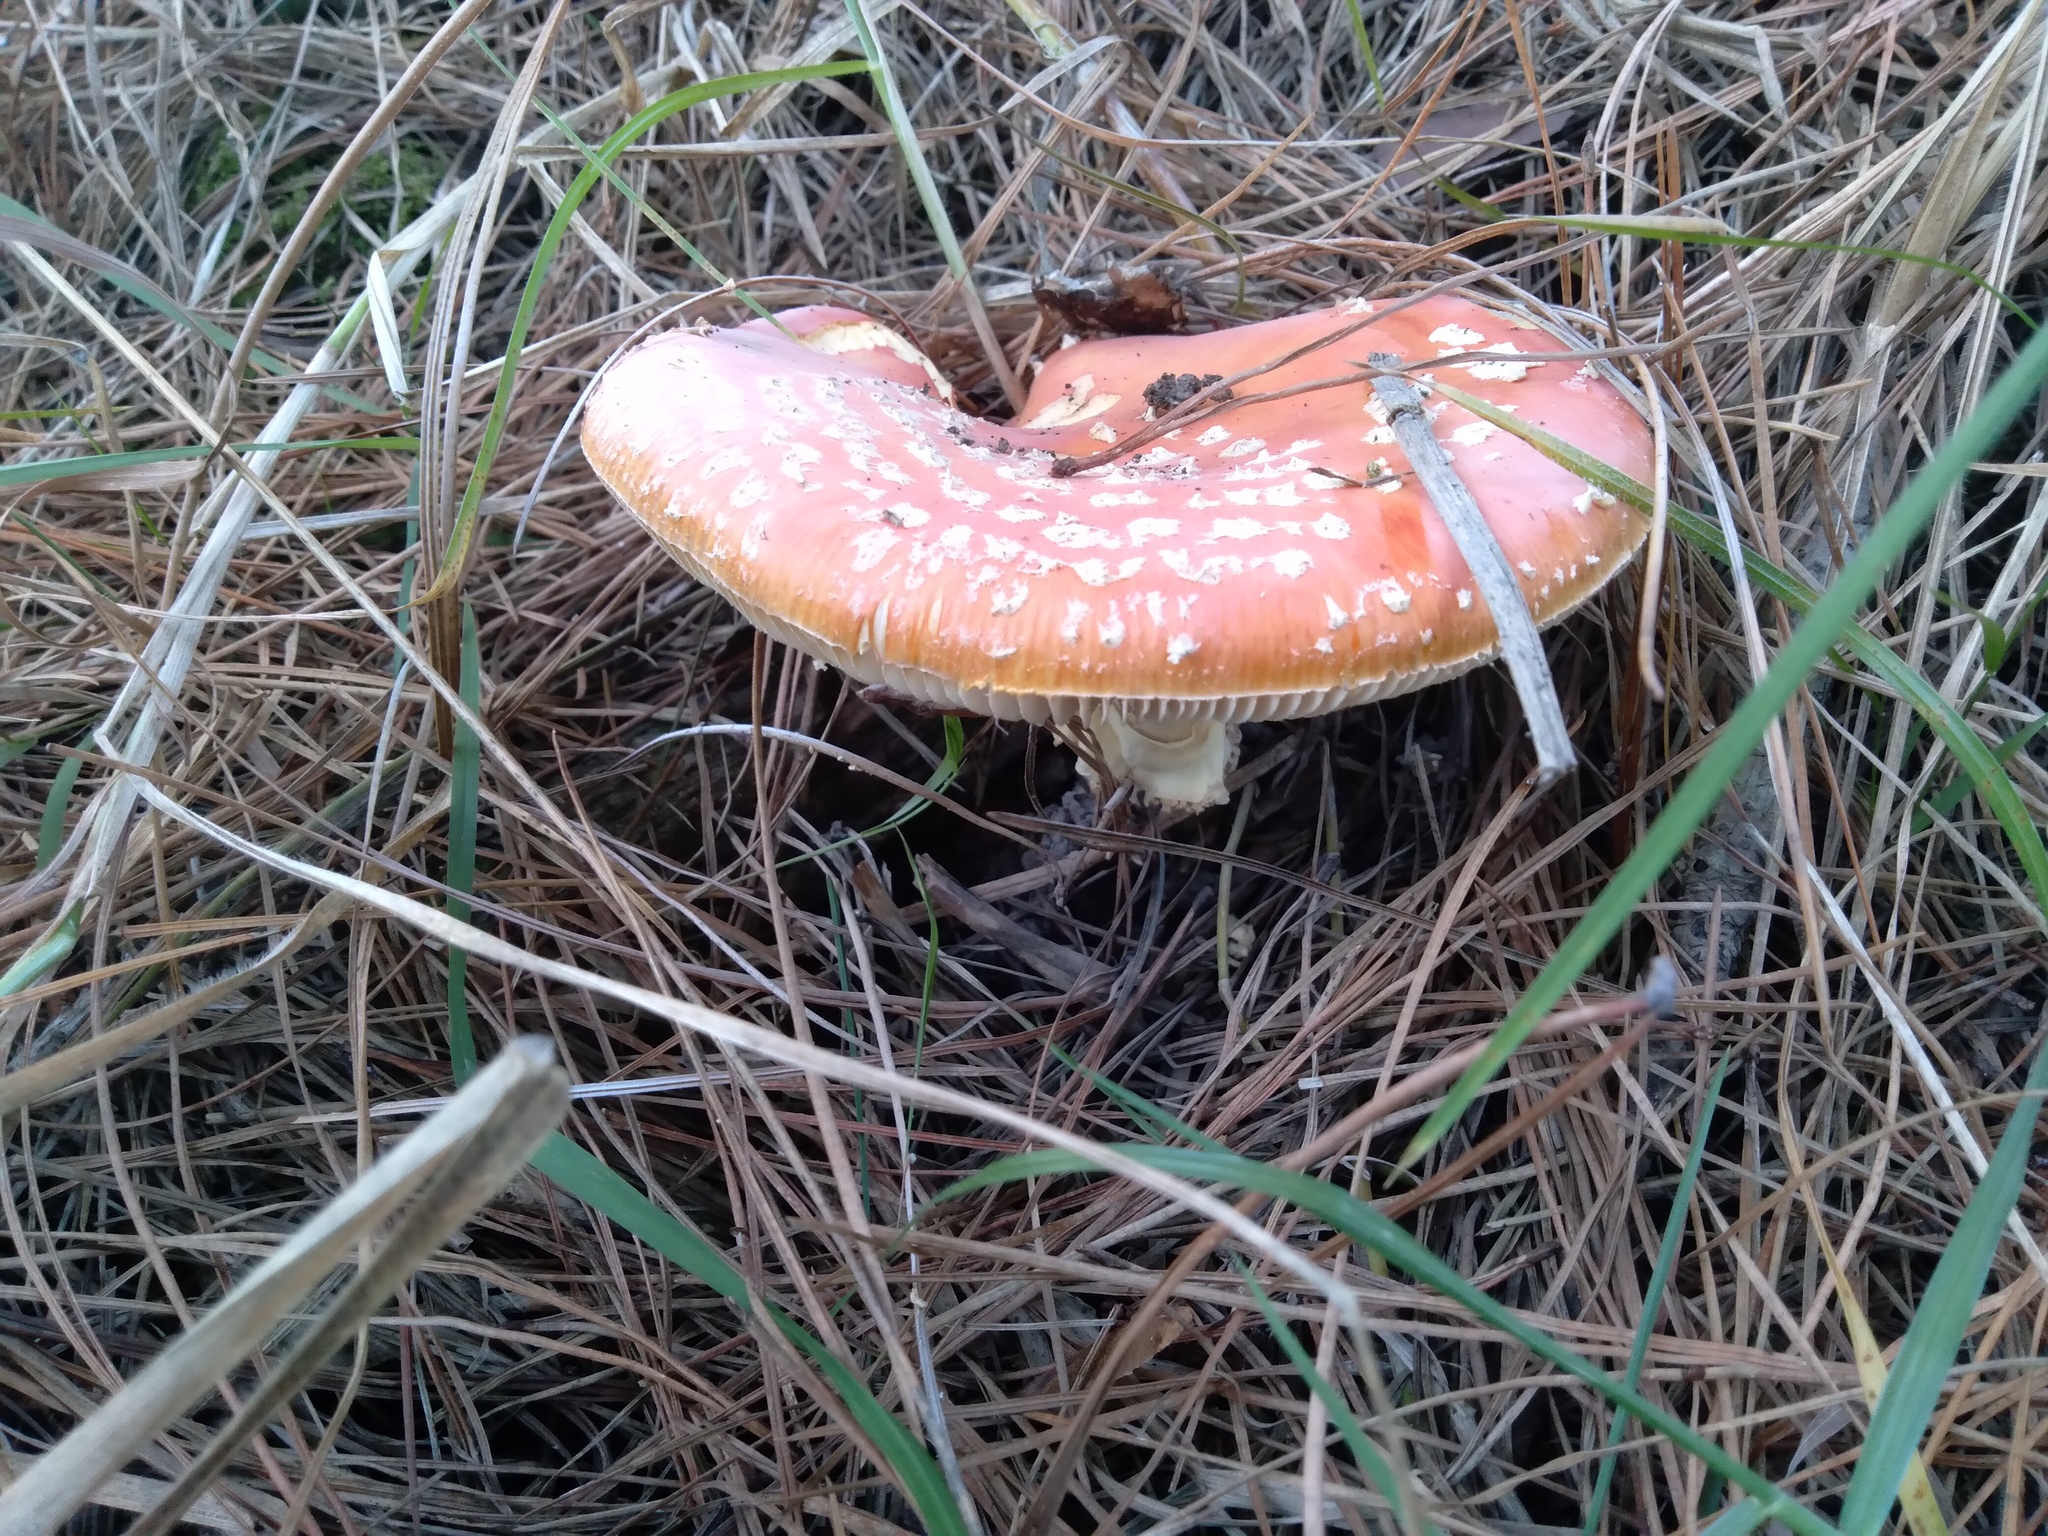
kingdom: Fungi
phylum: Basidiomycota
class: Agaricomycetes
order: Agaricales
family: Amanitaceae
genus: Amanita
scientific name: Amanita muscaria
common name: Fly agaric
